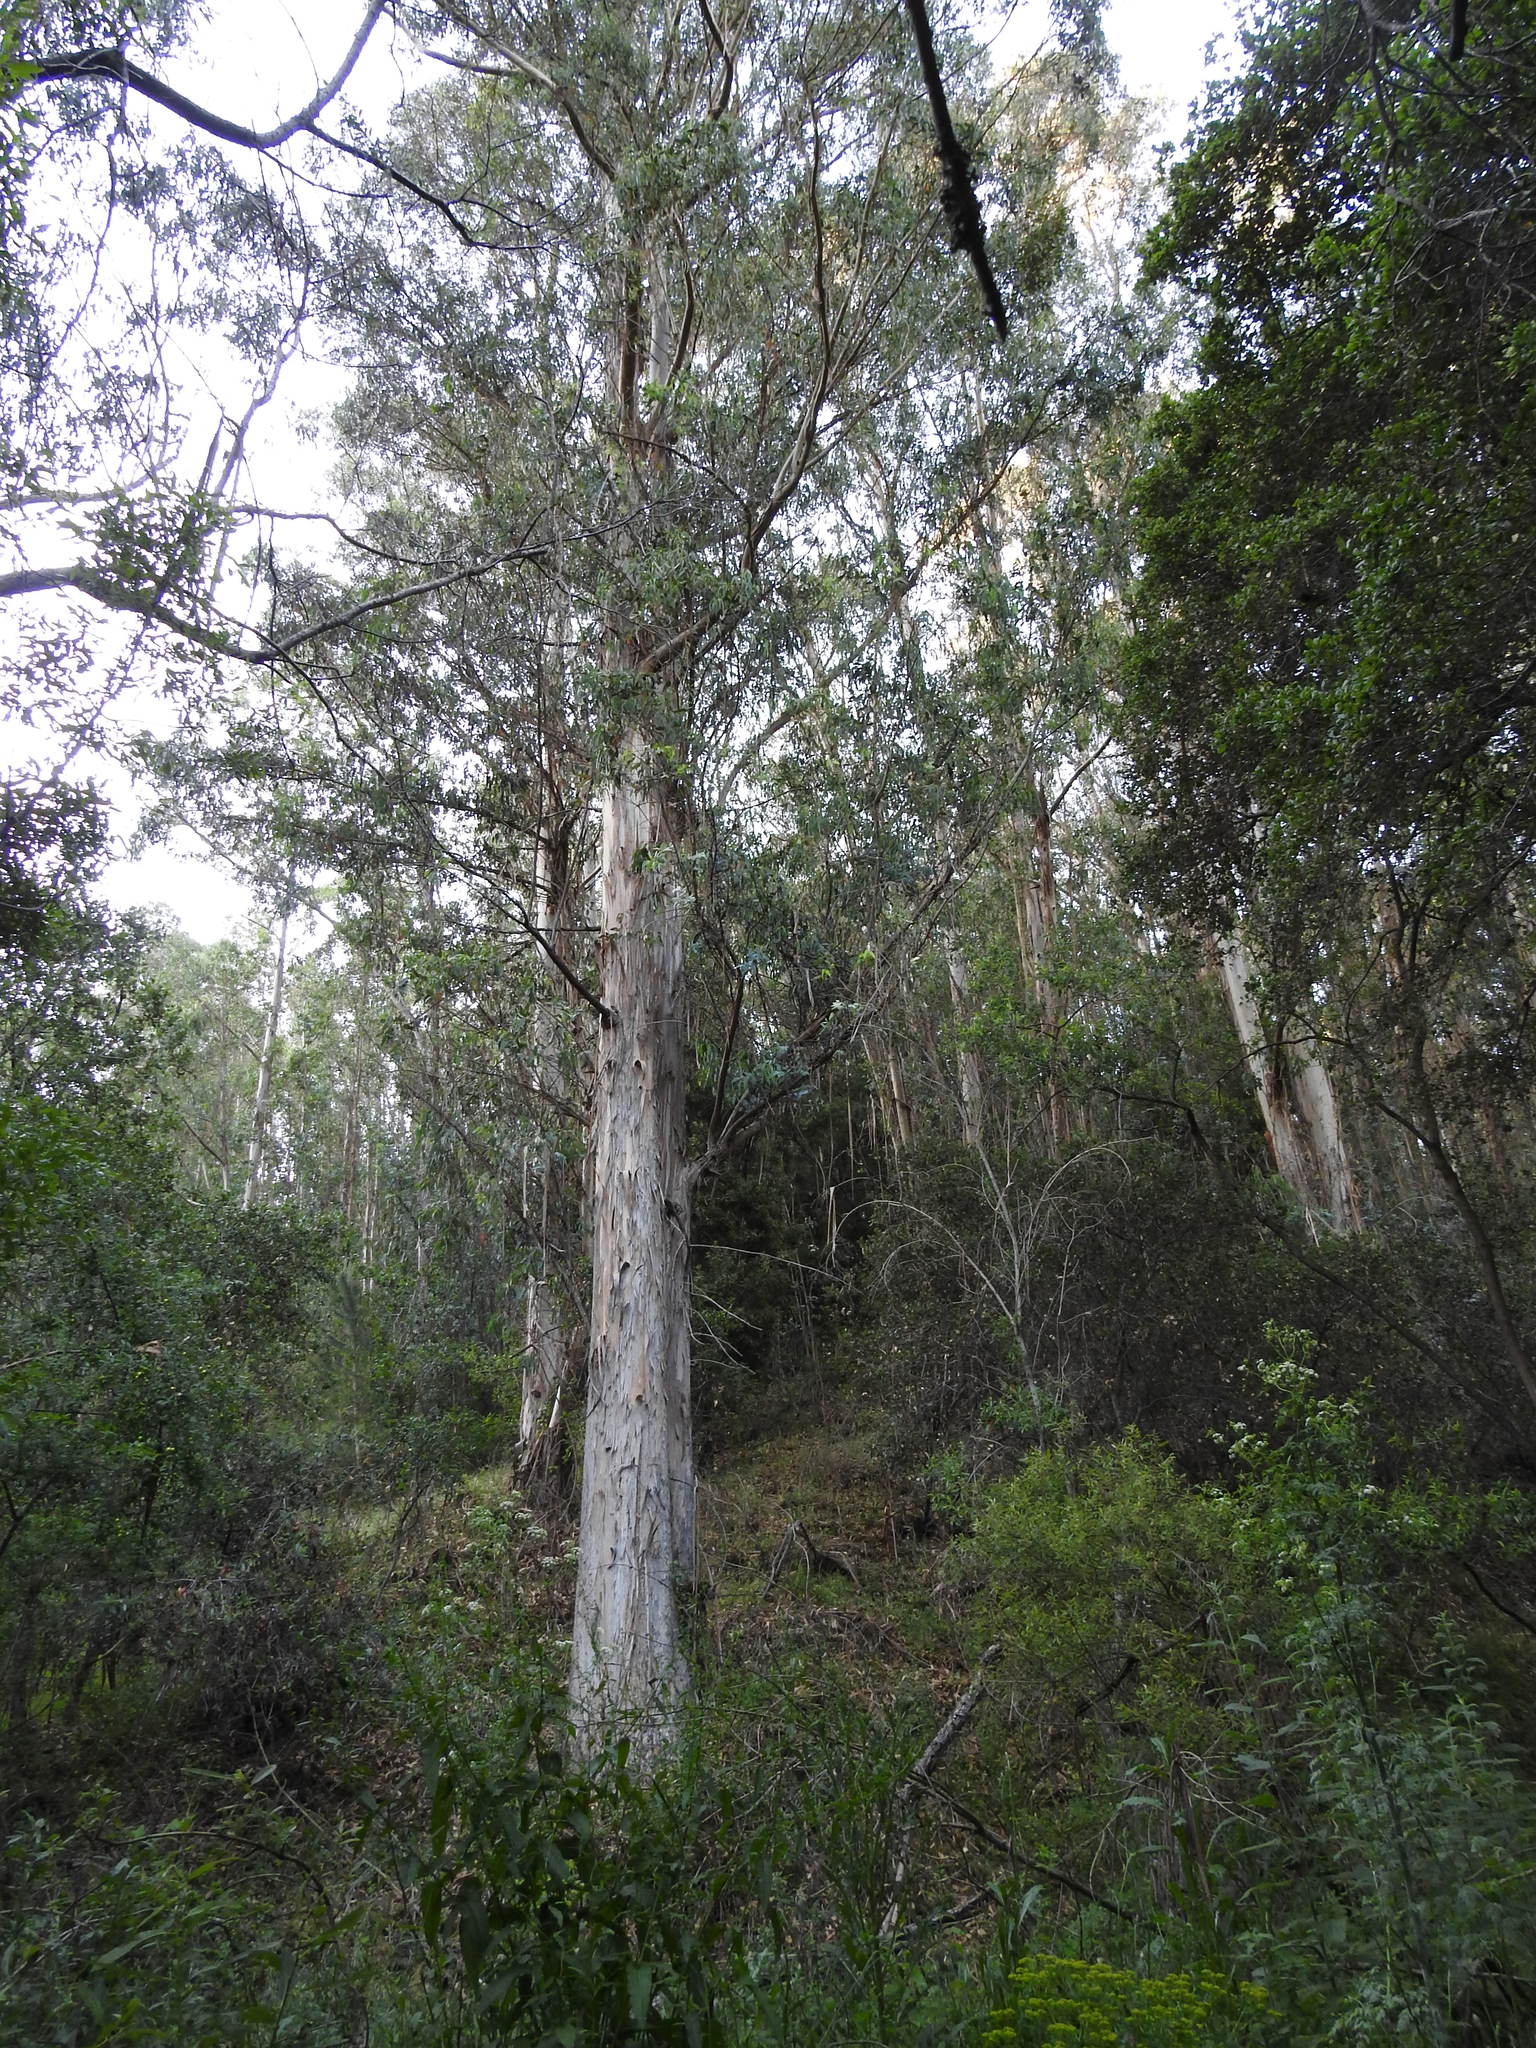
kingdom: Plantae
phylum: Tracheophyta
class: Magnoliopsida
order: Myrtales
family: Myrtaceae
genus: Eucalyptus
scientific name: Eucalyptus globulus
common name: Southern blue-gum
